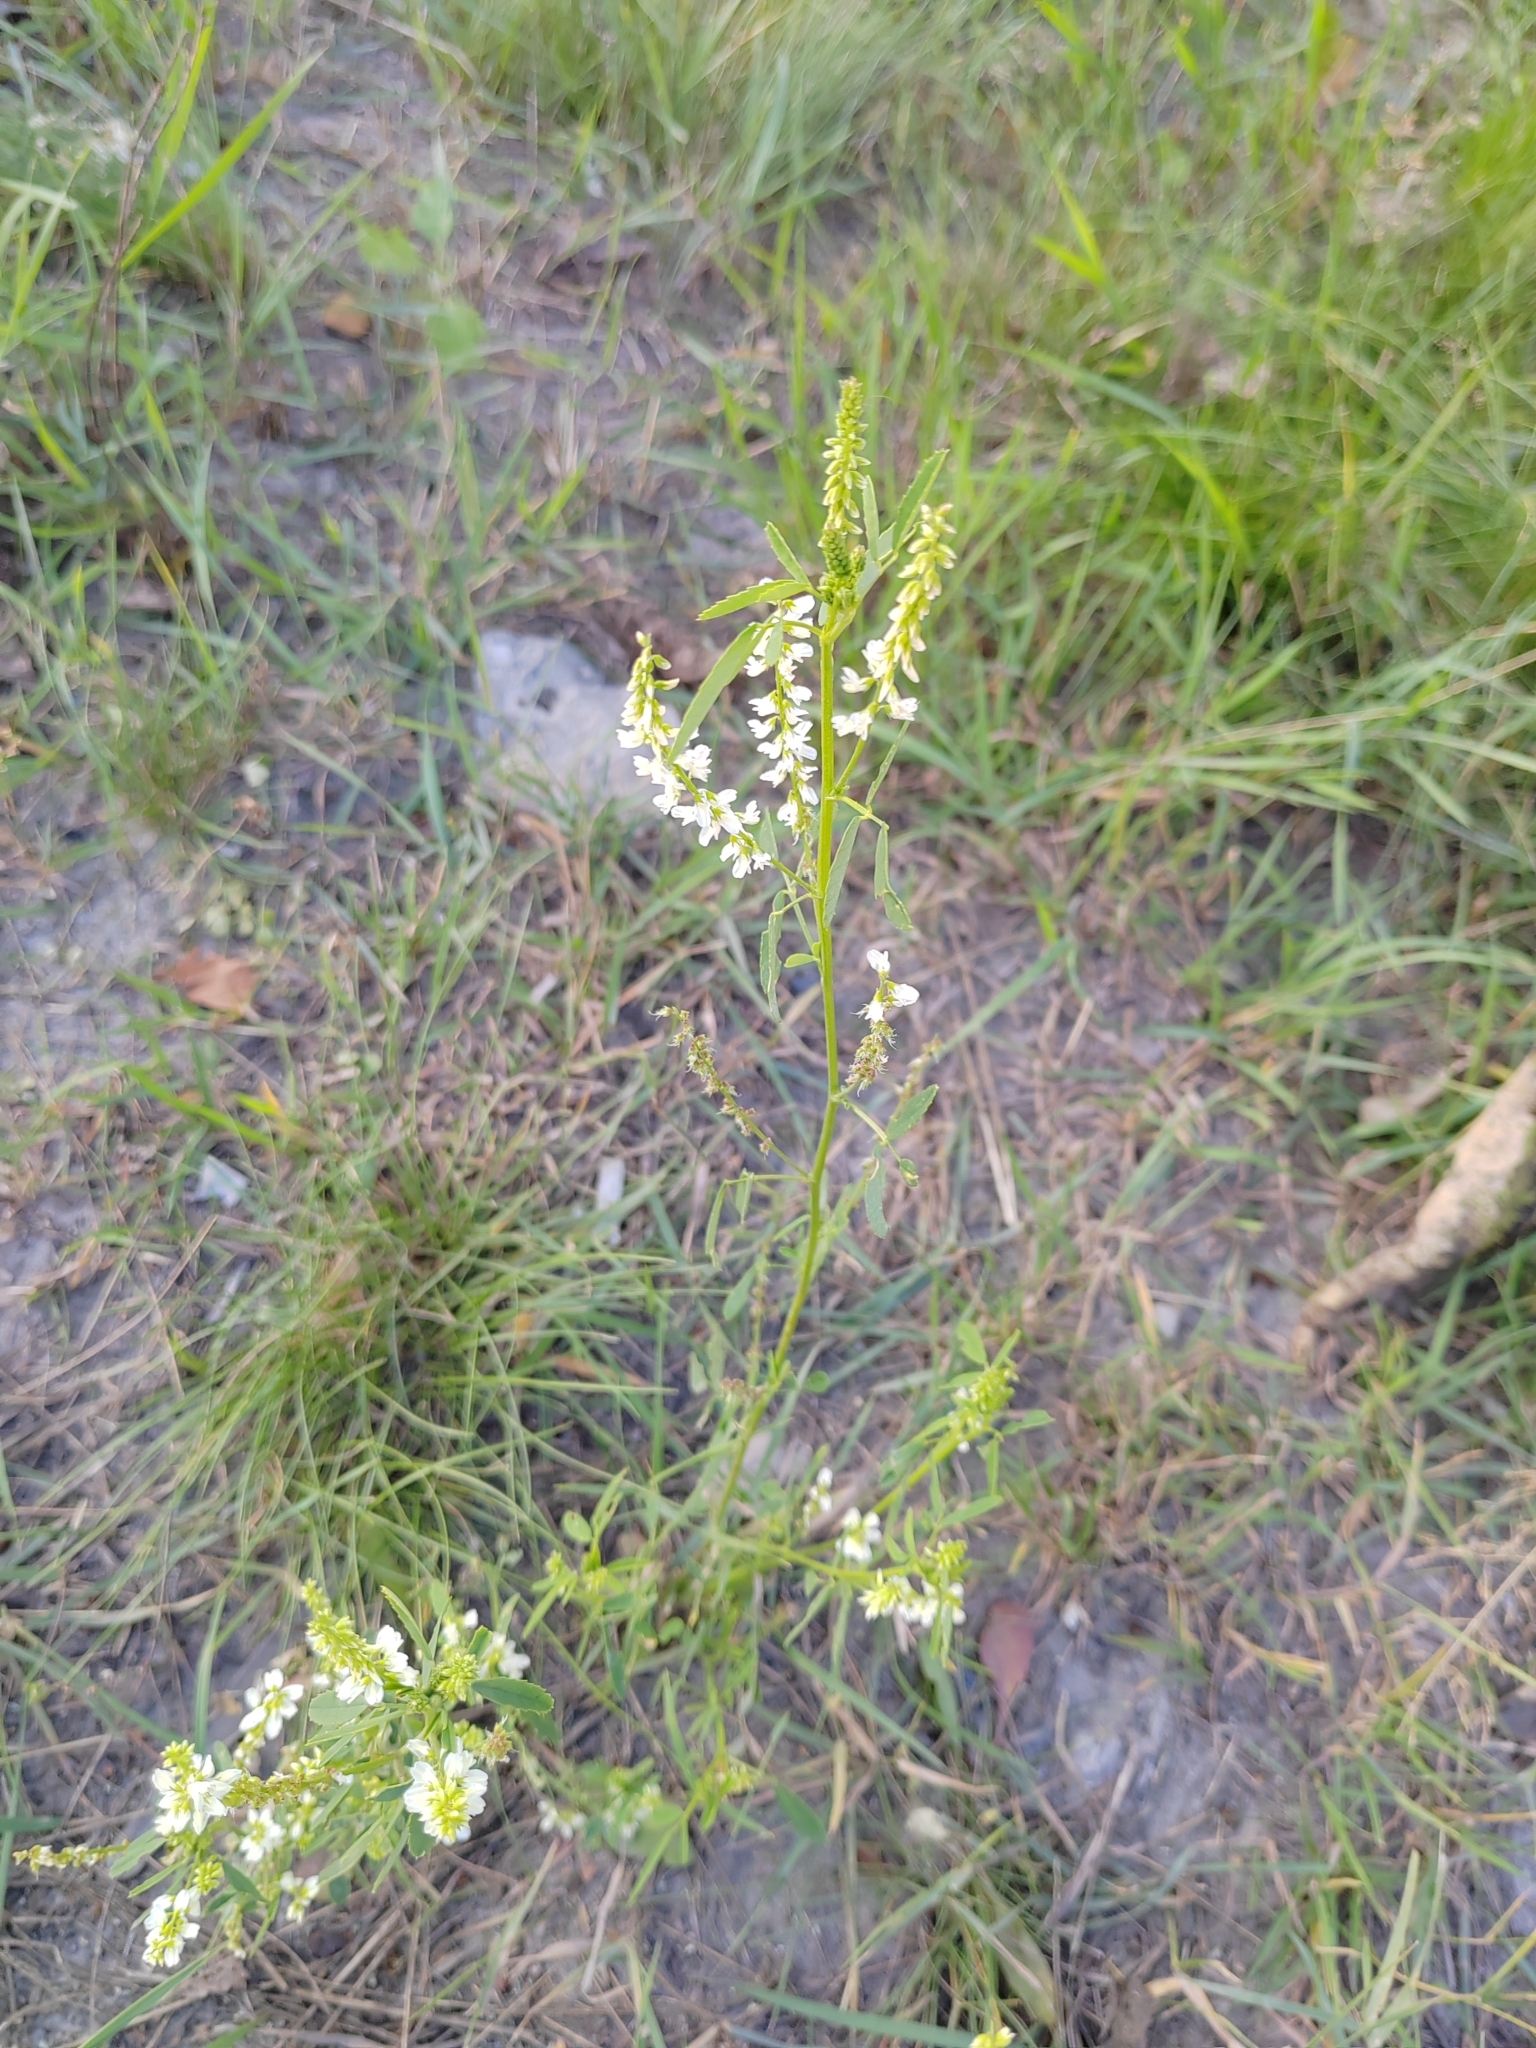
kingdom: Plantae
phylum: Tracheophyta
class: Magnoliopsida
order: Fabales
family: Fabaceae
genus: Melilotus
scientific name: Melilotus albus
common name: White melilot
